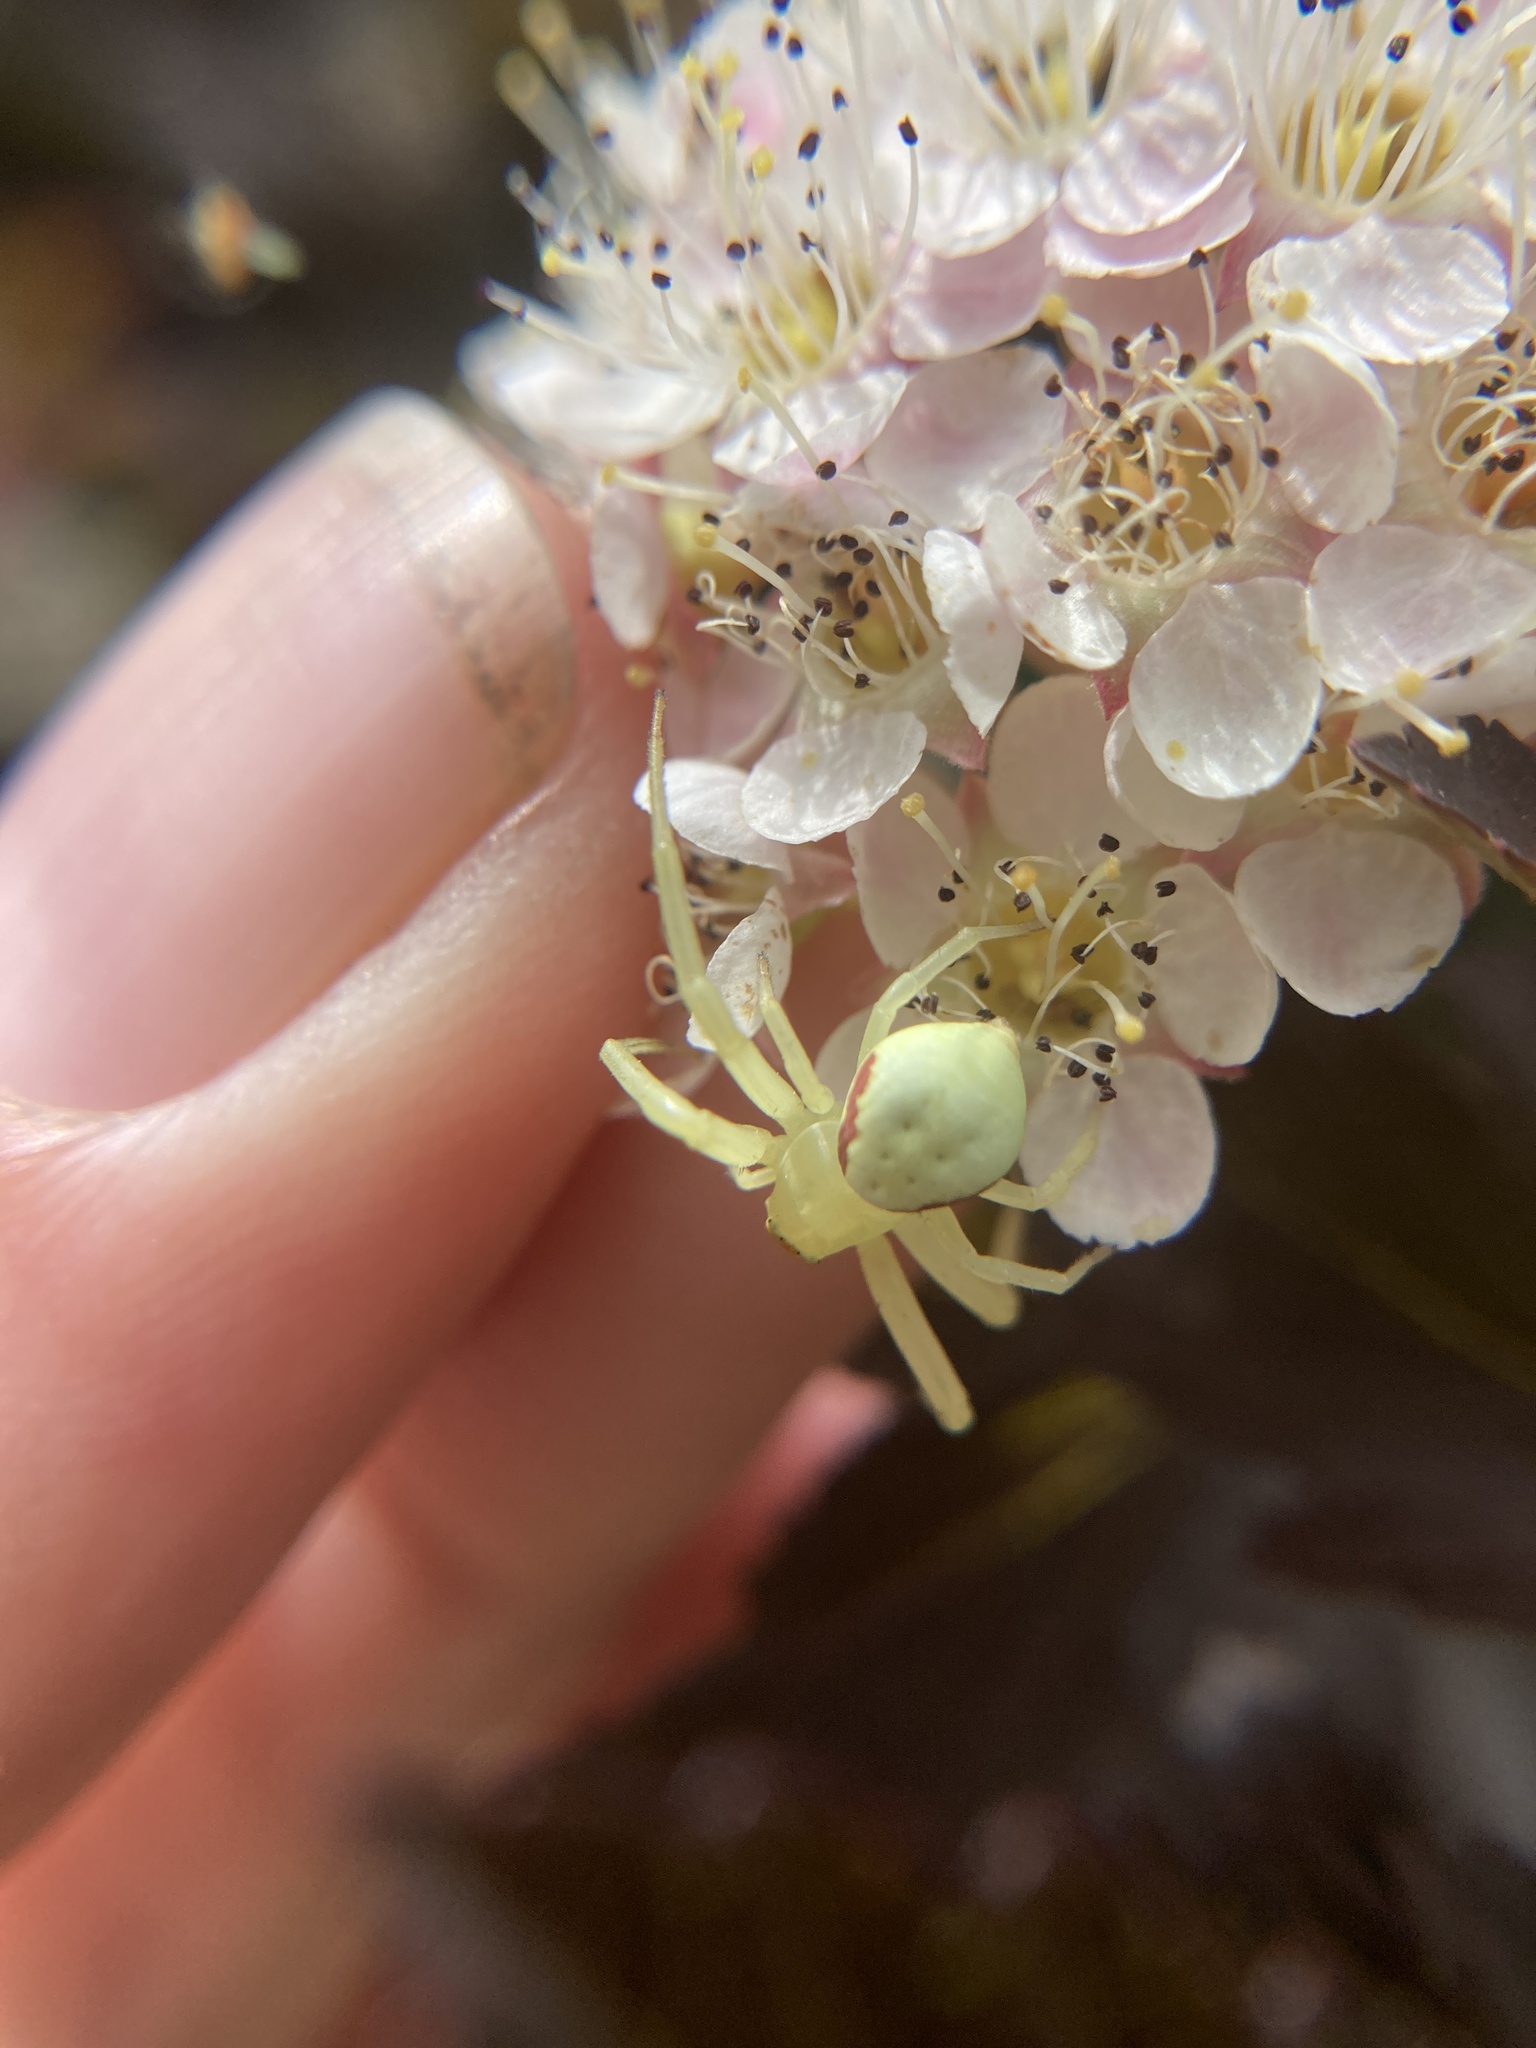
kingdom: Animalia
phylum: Arthropoda
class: Arachnida
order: Araneae
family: Thomisidae
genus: Misumena
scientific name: Misumena vatia
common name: Goldenrod crab spider
